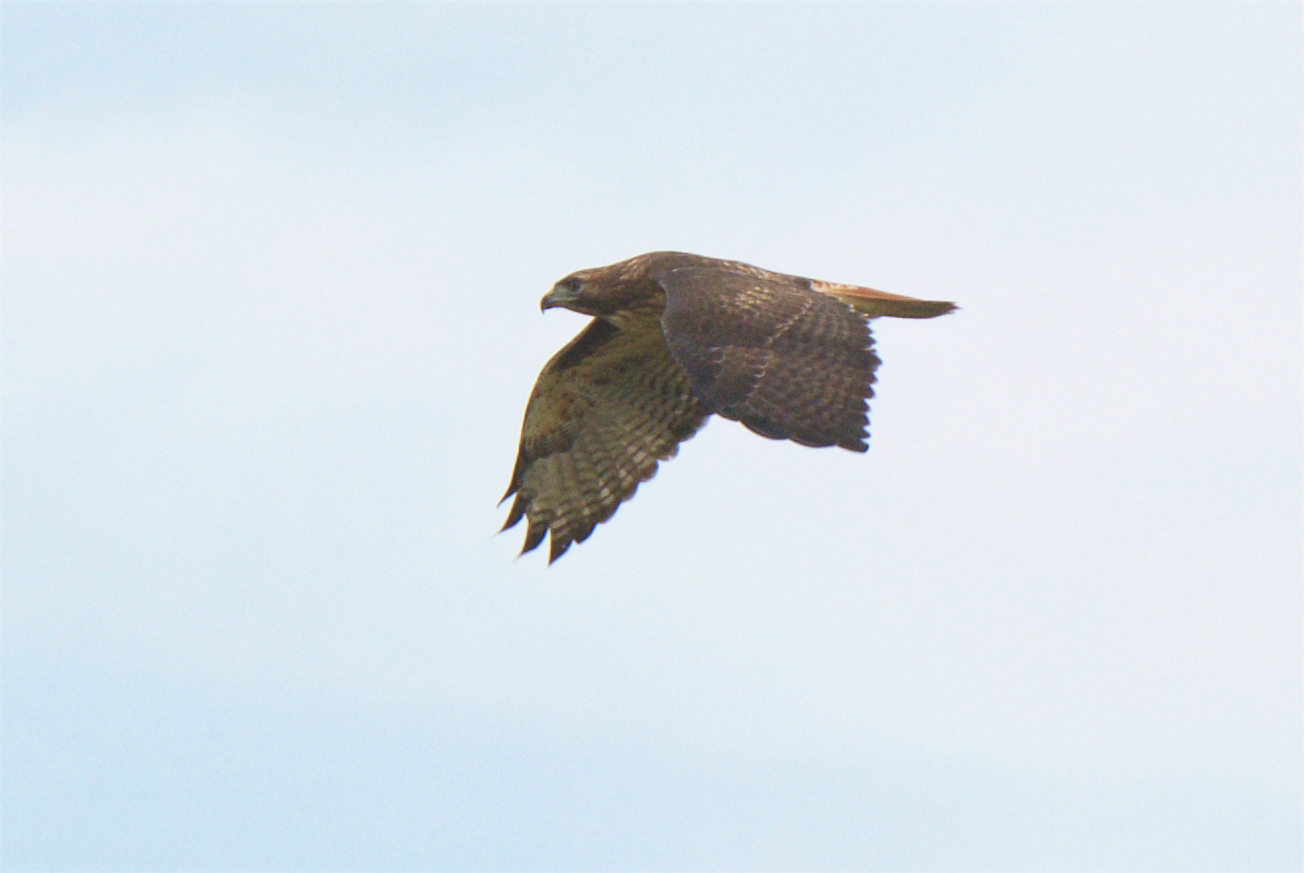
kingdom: Animalia
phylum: Chordata
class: Aves
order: Accipitriformes
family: Accipitridae
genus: Buteo
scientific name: Buteo jamaicensis
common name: Red-tailed hawk
